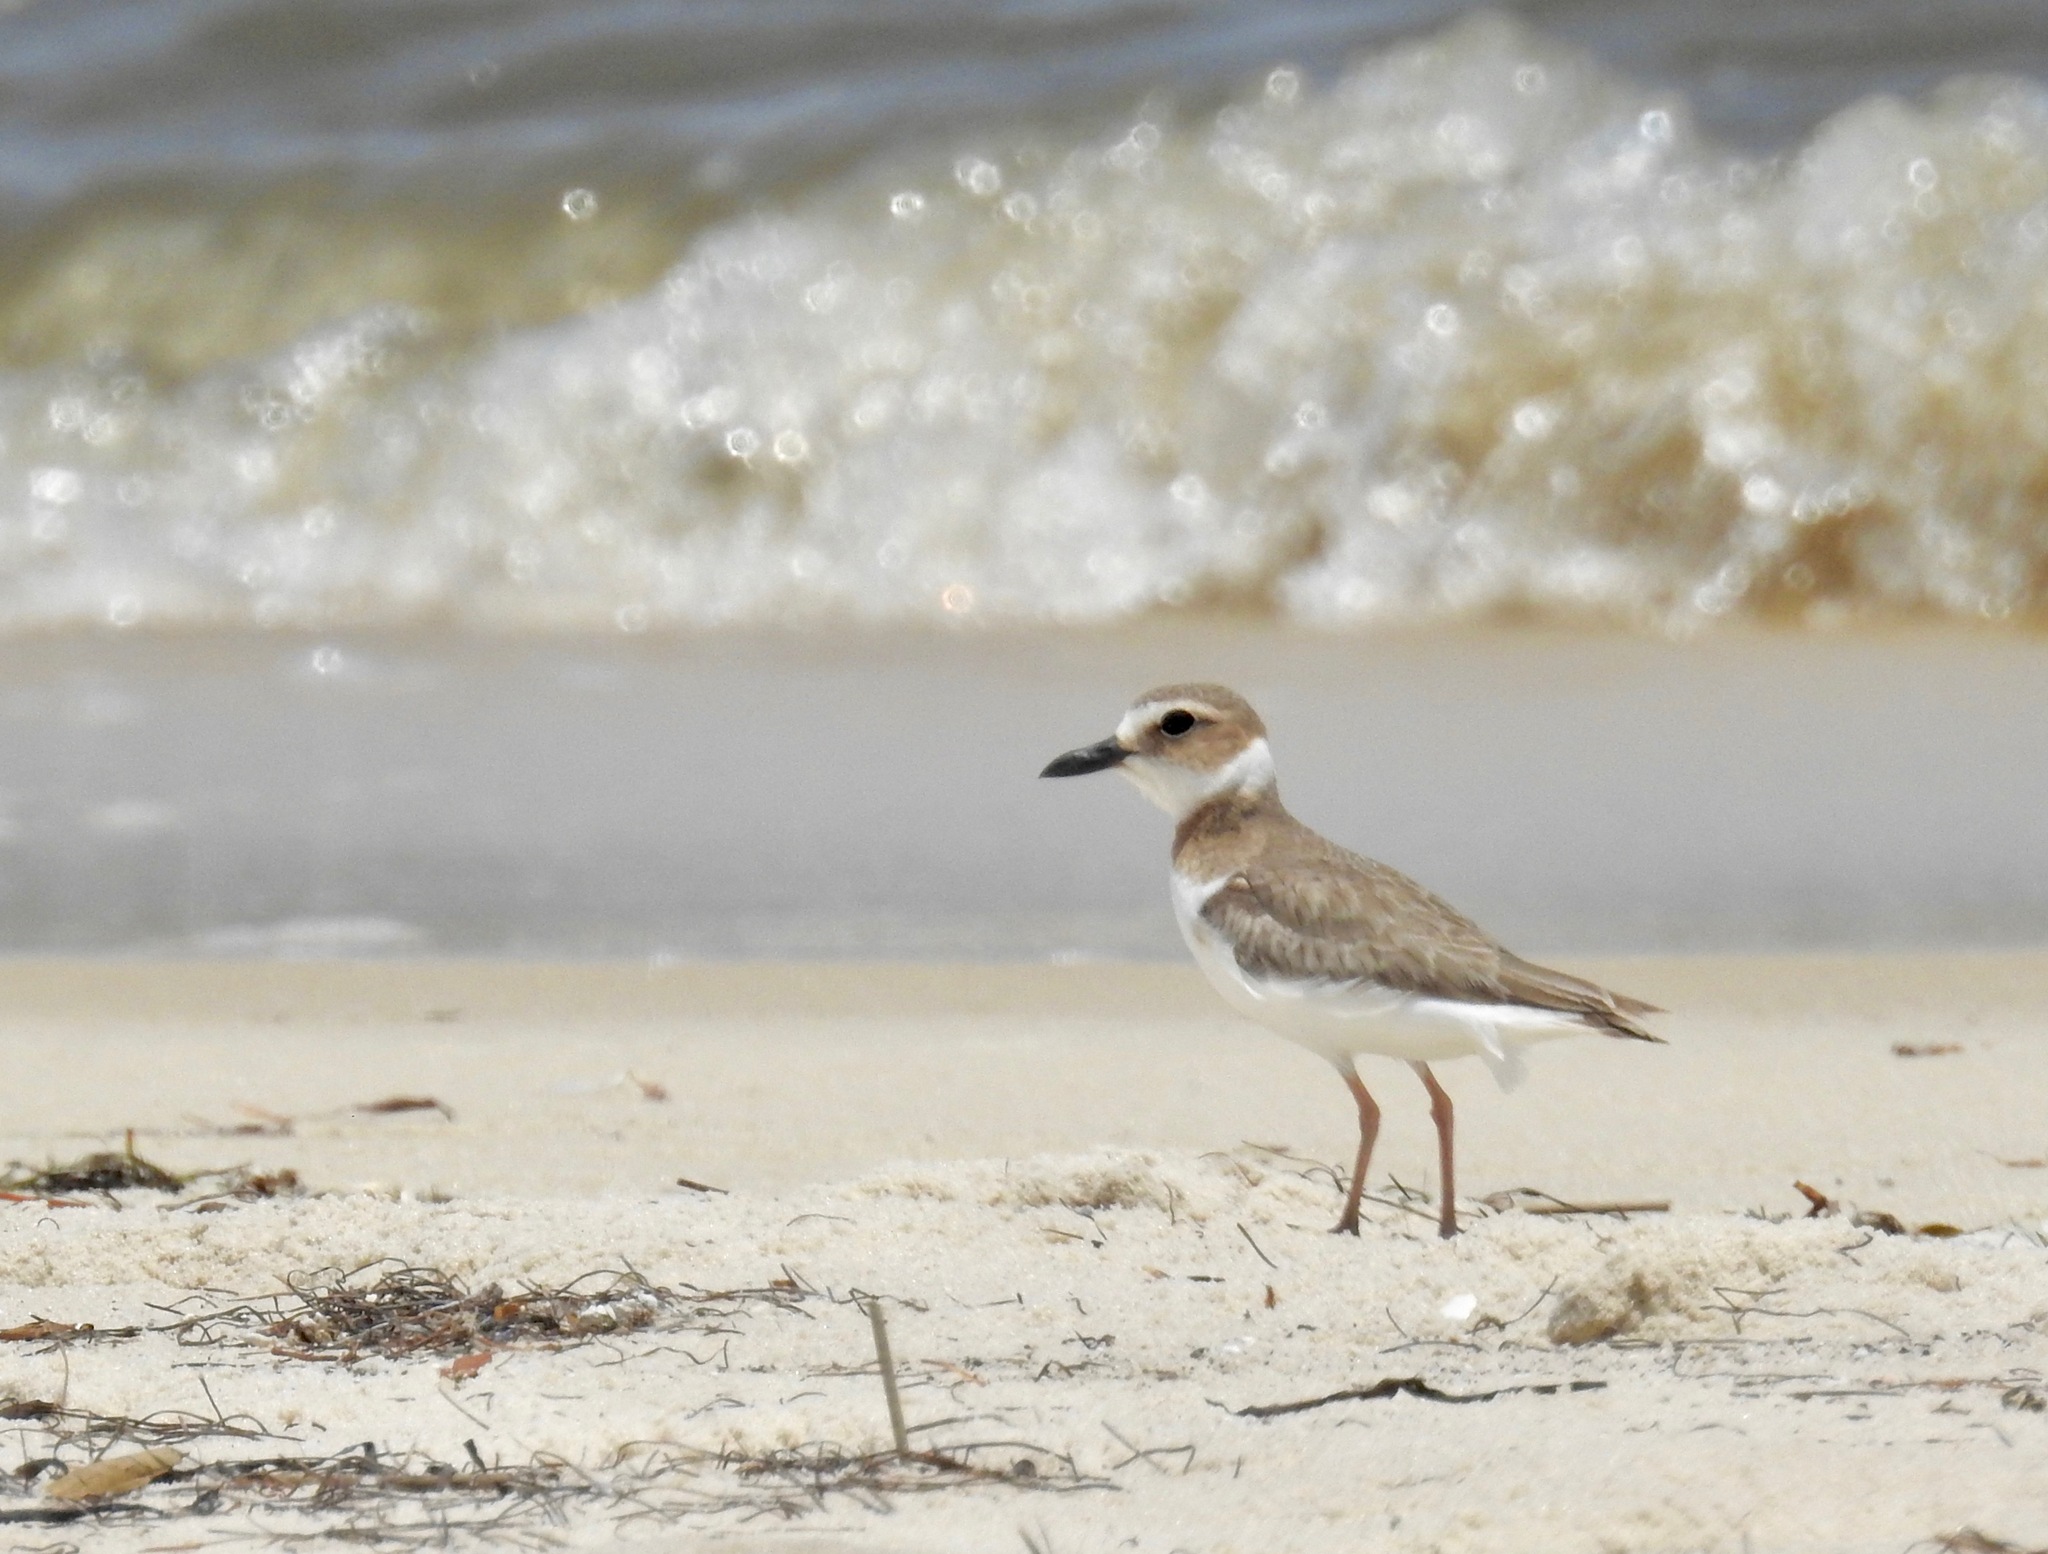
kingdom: Animalia
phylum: Chordata
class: Aves
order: Charadriiformes
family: Charadriidae
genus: Anarhynchus
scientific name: Anarhynchus
